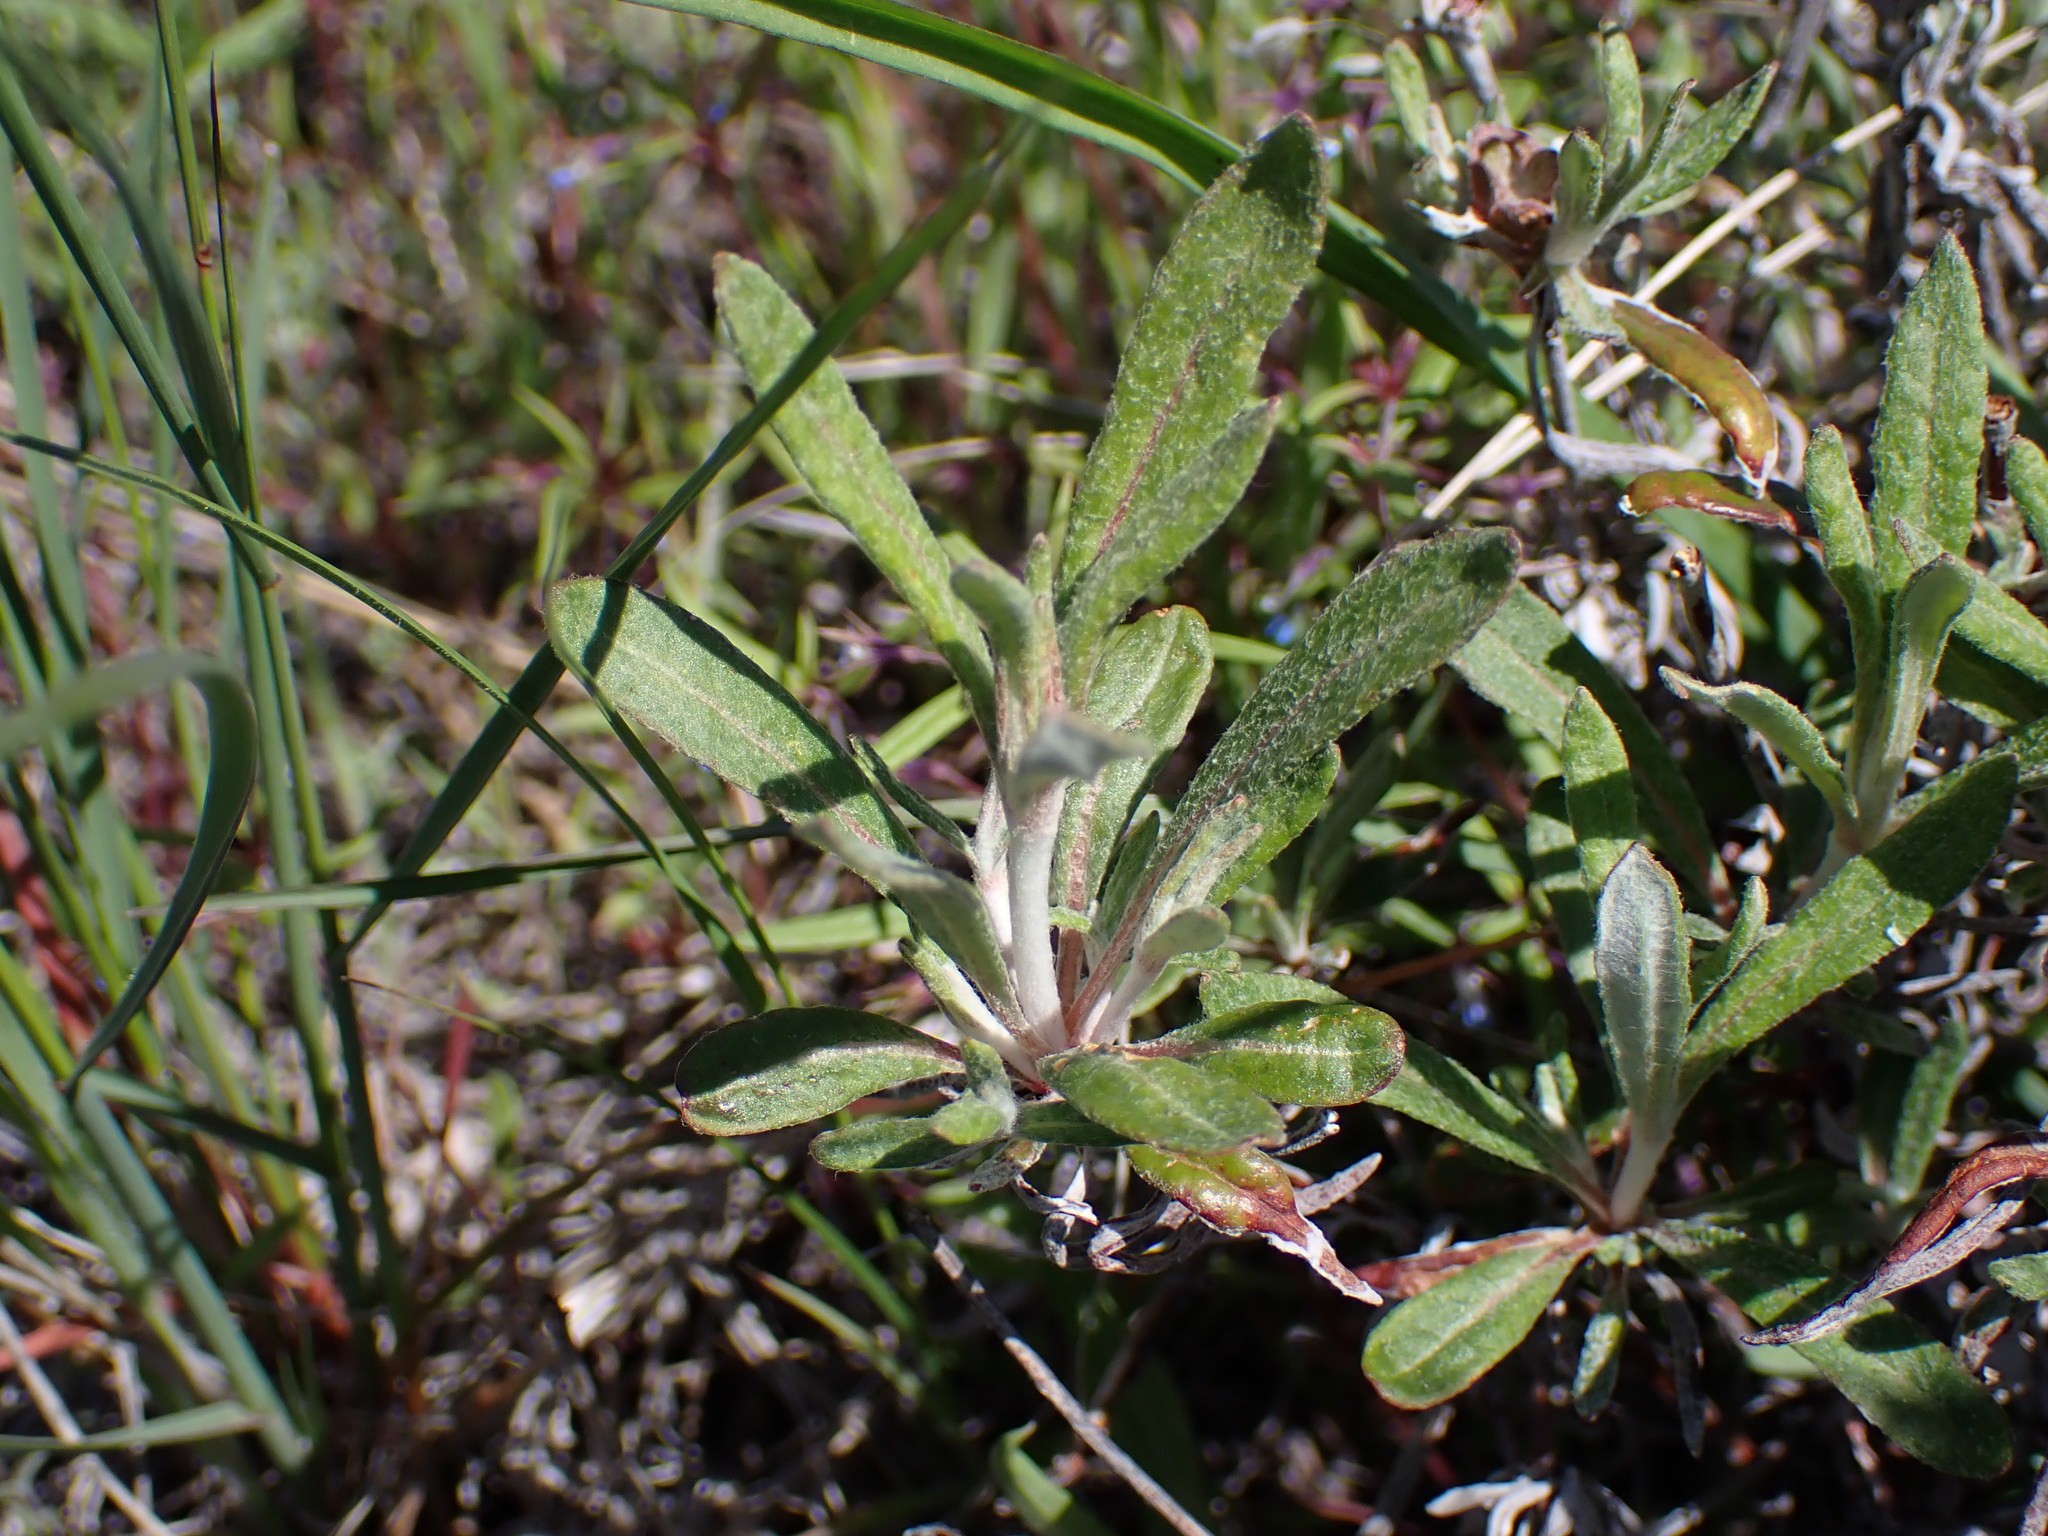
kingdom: Plantae
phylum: Tracheophyta
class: Magnoliopsida
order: Caryophyllales
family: Polygonaceae
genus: Eriogonum
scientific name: Eriogonum heracleoides
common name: Wyeth's buckwheat
